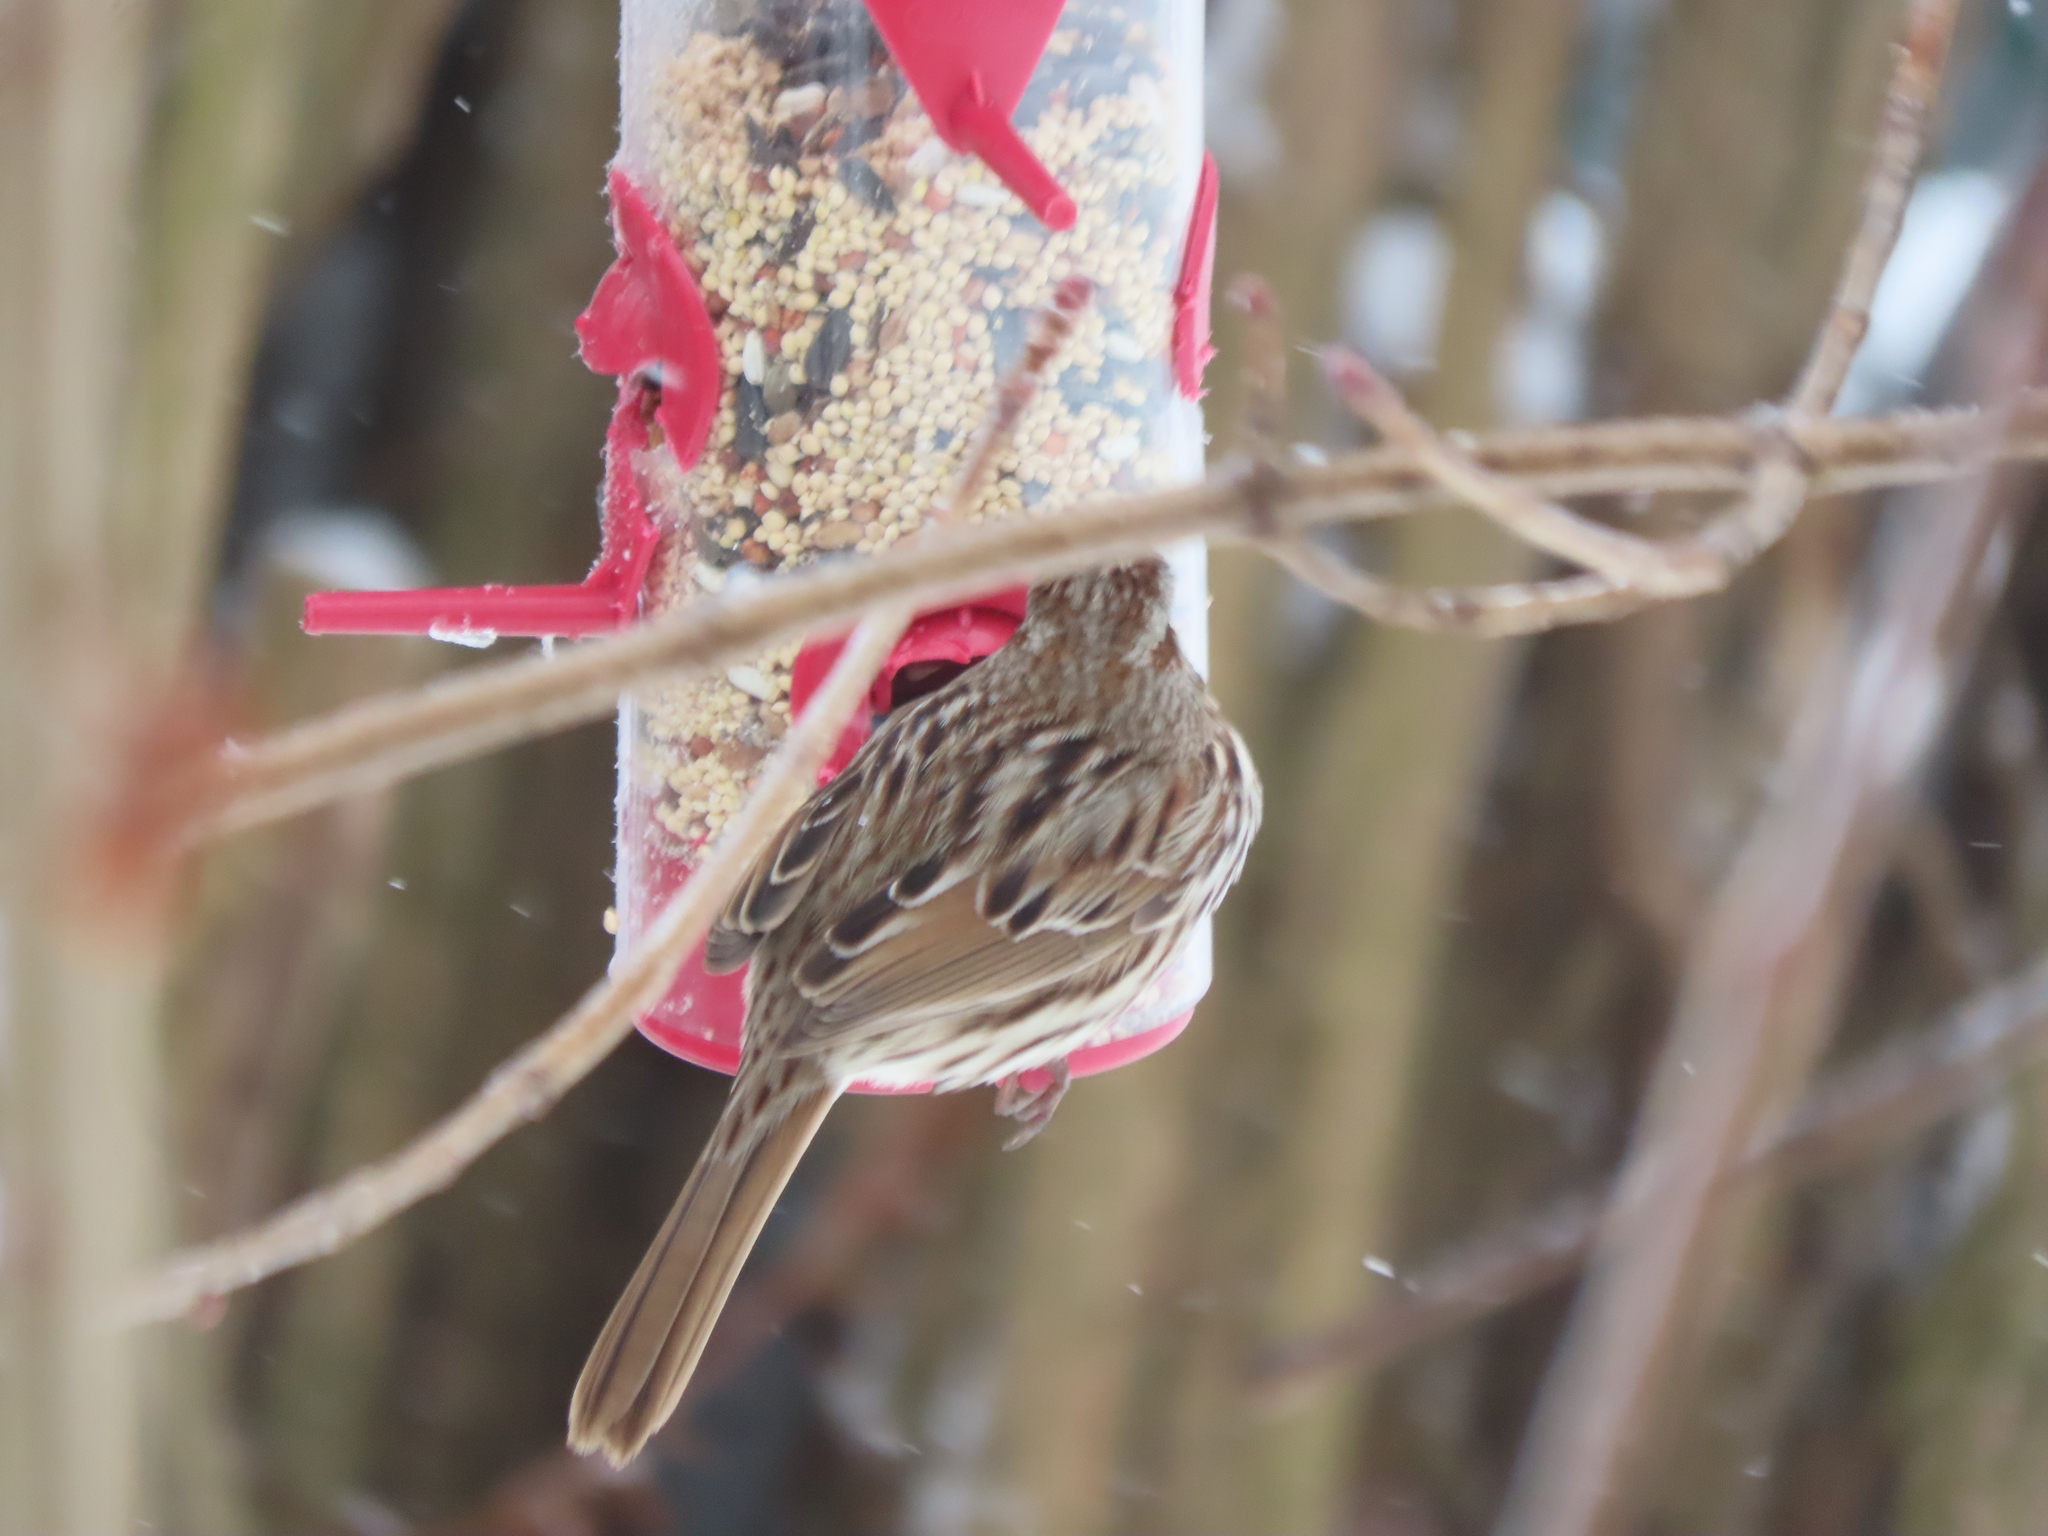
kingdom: Animalia
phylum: Chordata
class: Aves
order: Passeriformes
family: Passerellidae
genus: Melospiza
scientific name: Melospiza melodia
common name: Song sparrow
